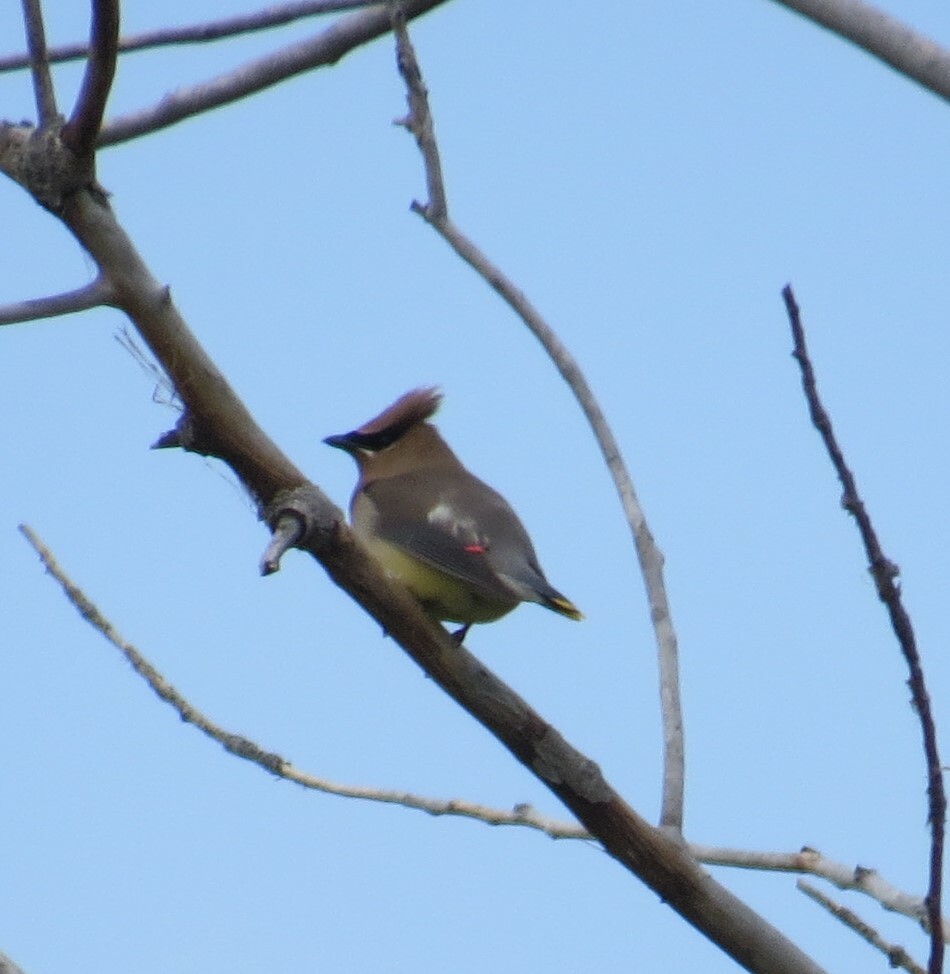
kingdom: Animalia
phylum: Chordata
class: Aves
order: Passeriformes
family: Bombycillidae
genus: Bombycilla
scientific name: Bombycilla cedrorum
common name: Cedar waxwing
